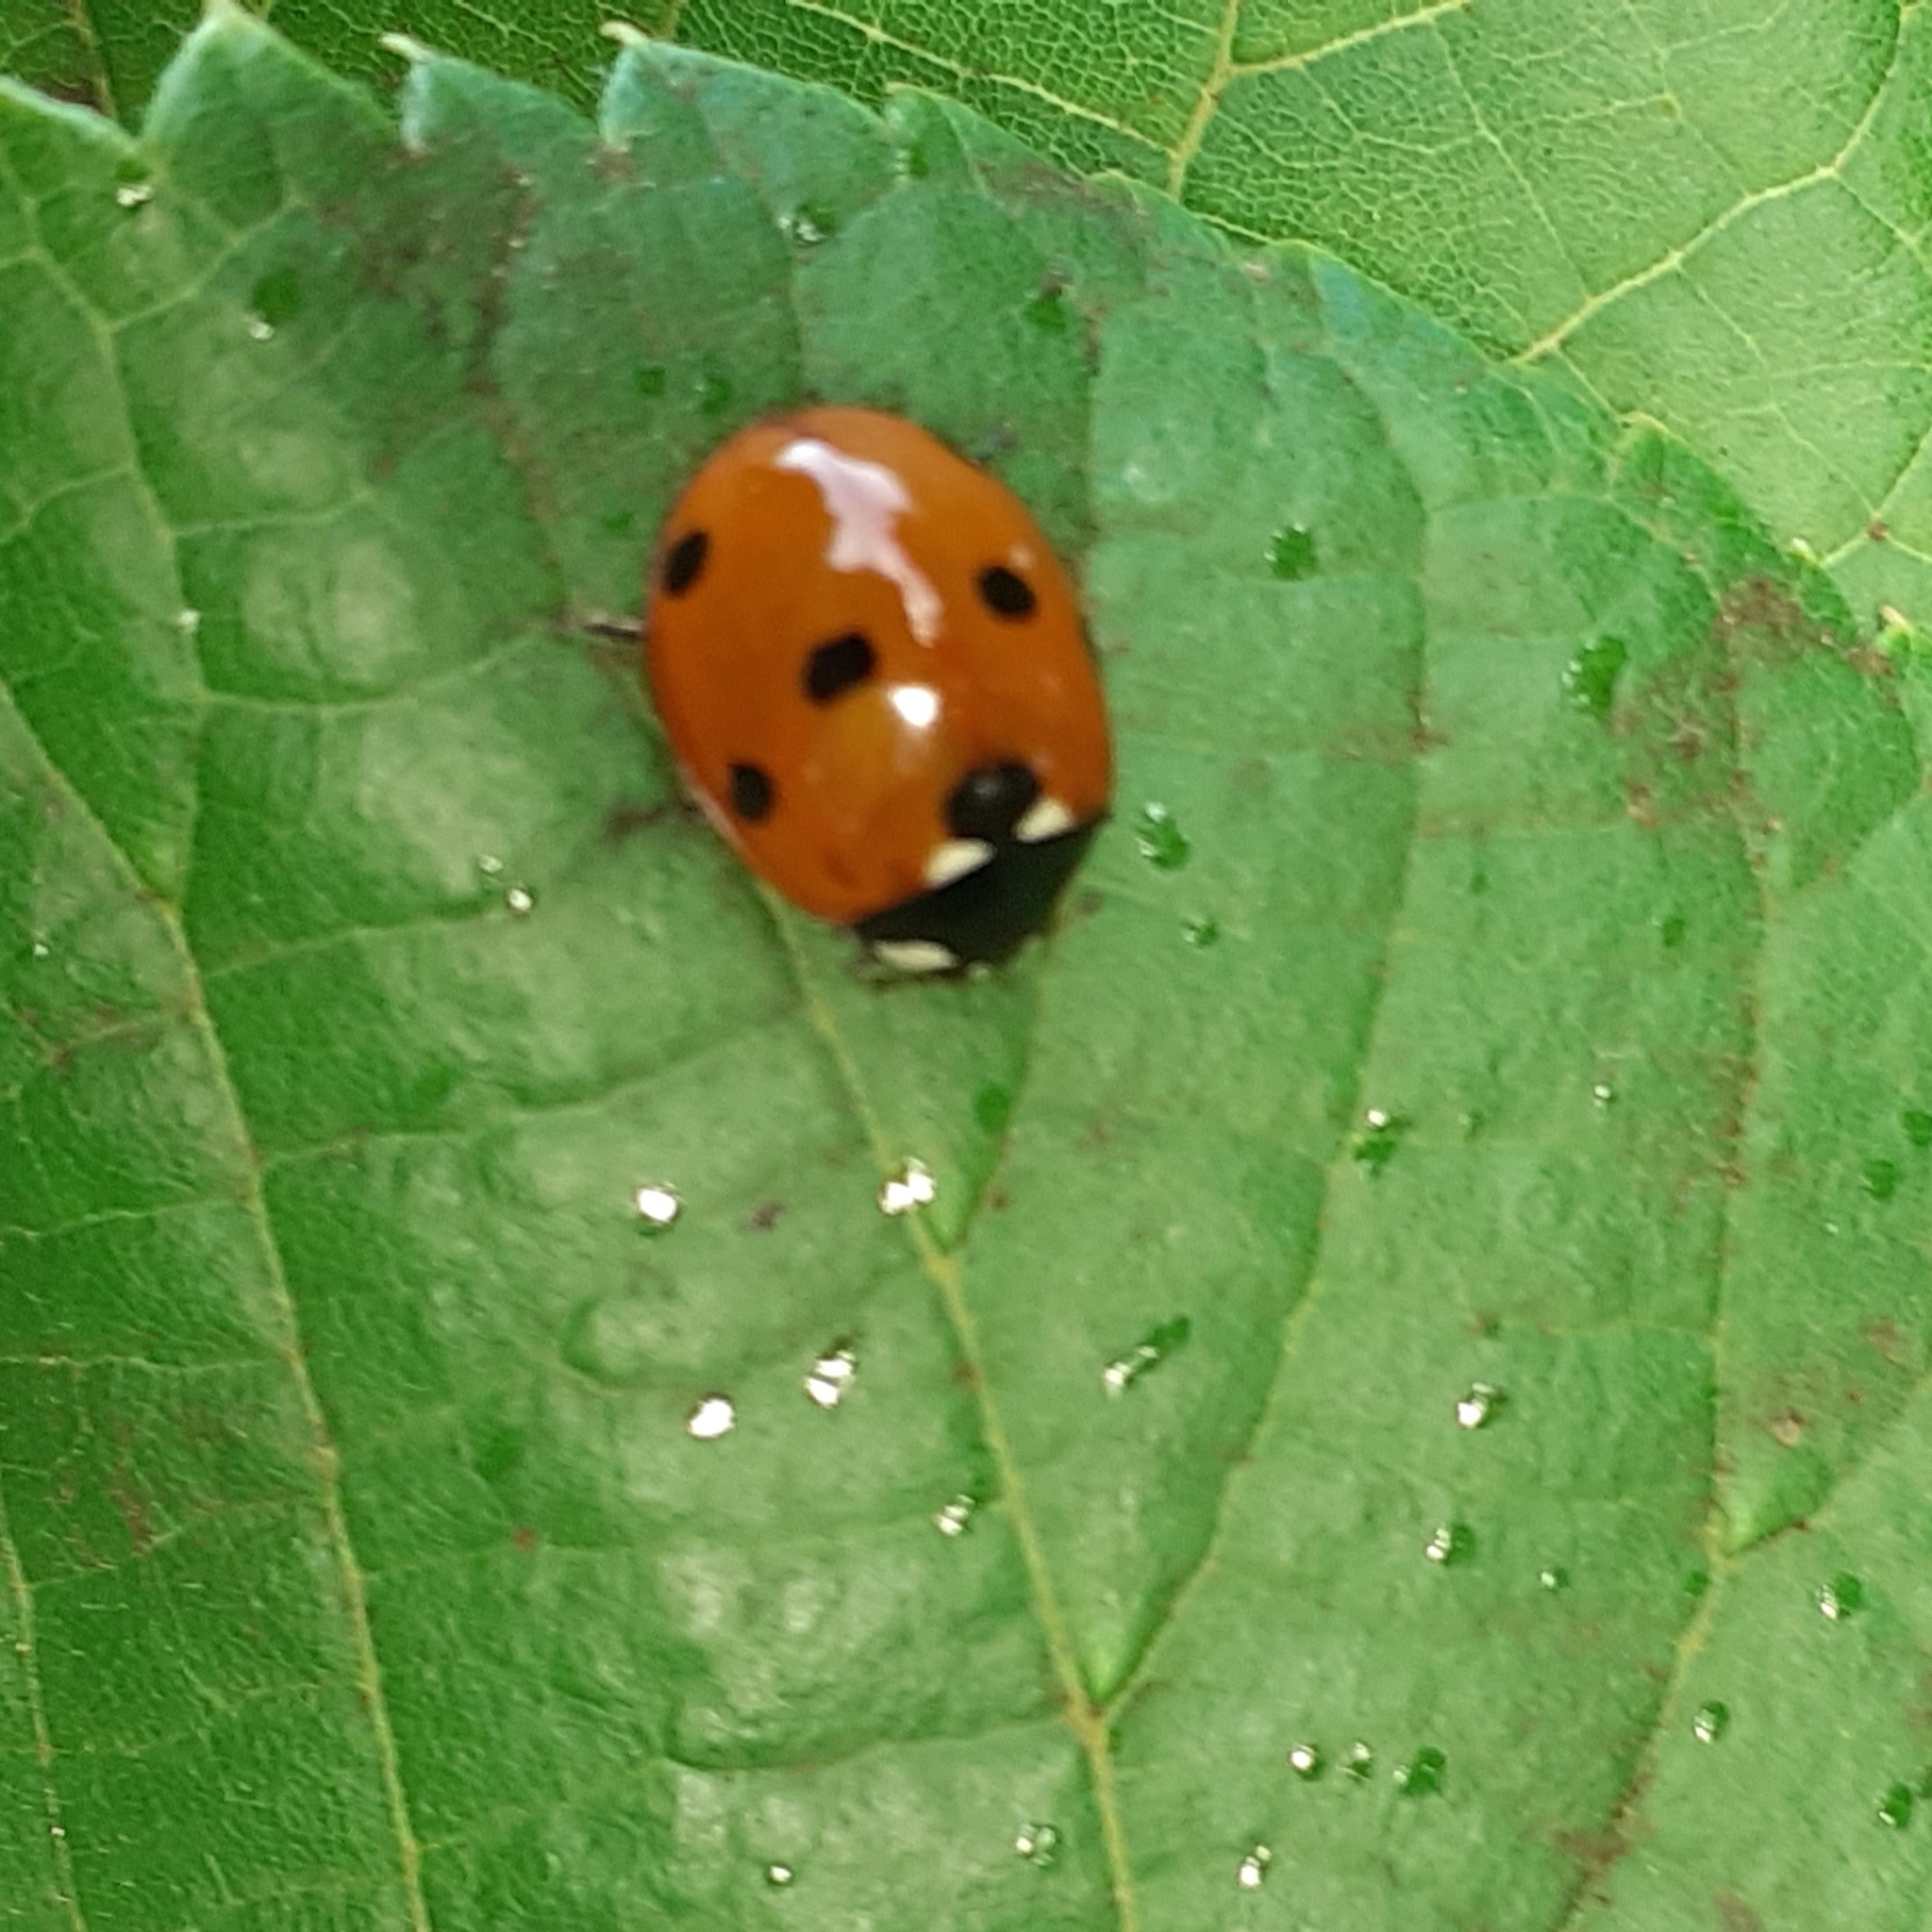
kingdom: Animalia
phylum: Arthropoda
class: Insecta
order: Coleoptera
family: Coccinellidae
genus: Coccinella
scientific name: Coccinella septempunctata
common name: Sevenspotted lady beetle
